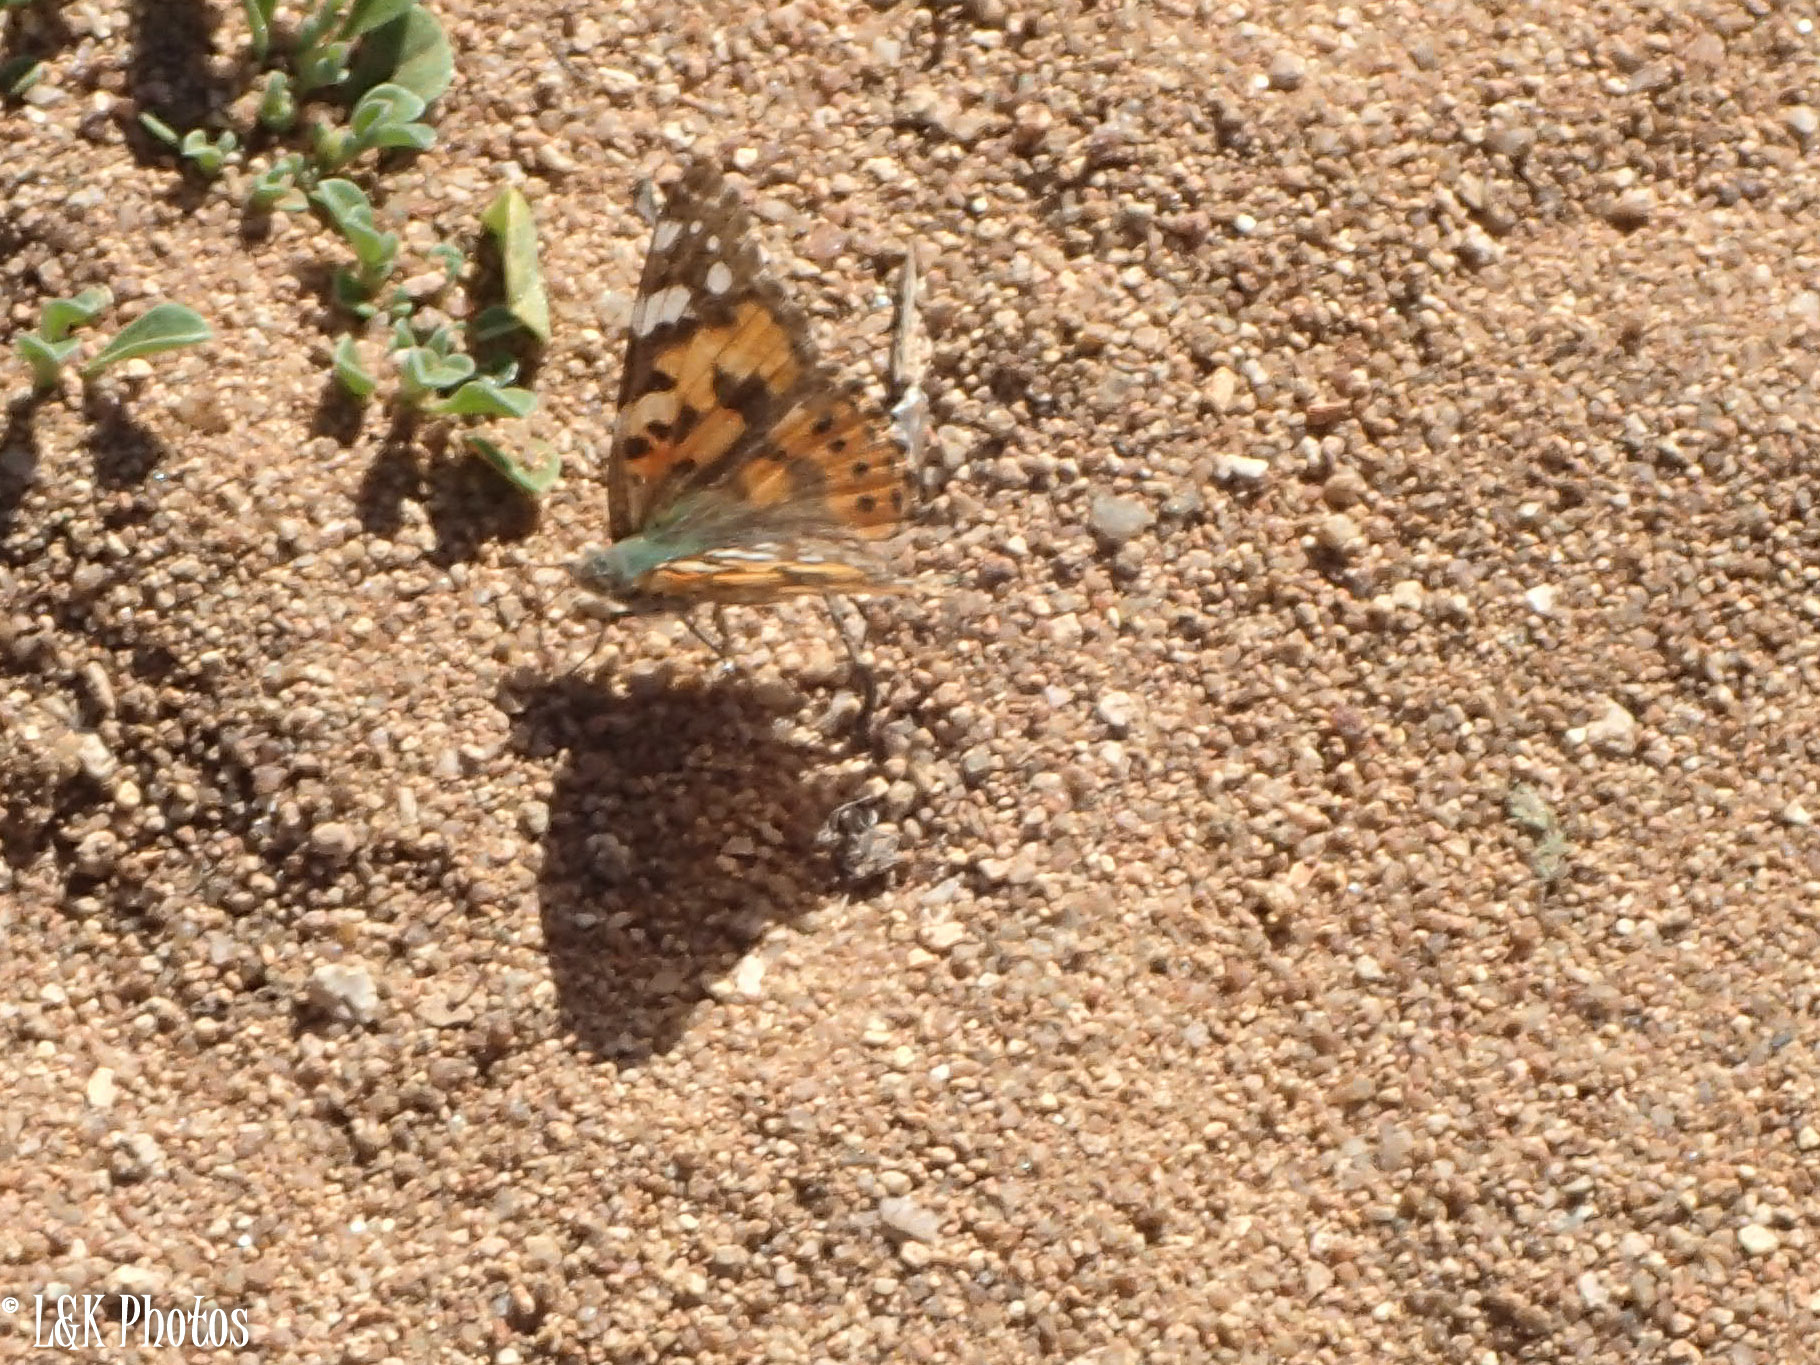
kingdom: Animalia
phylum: Arthropoda
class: Insecta
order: Lepidoptera
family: Nymphalidae
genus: Vanessa
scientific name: Vanessa cardui
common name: Painted lady
